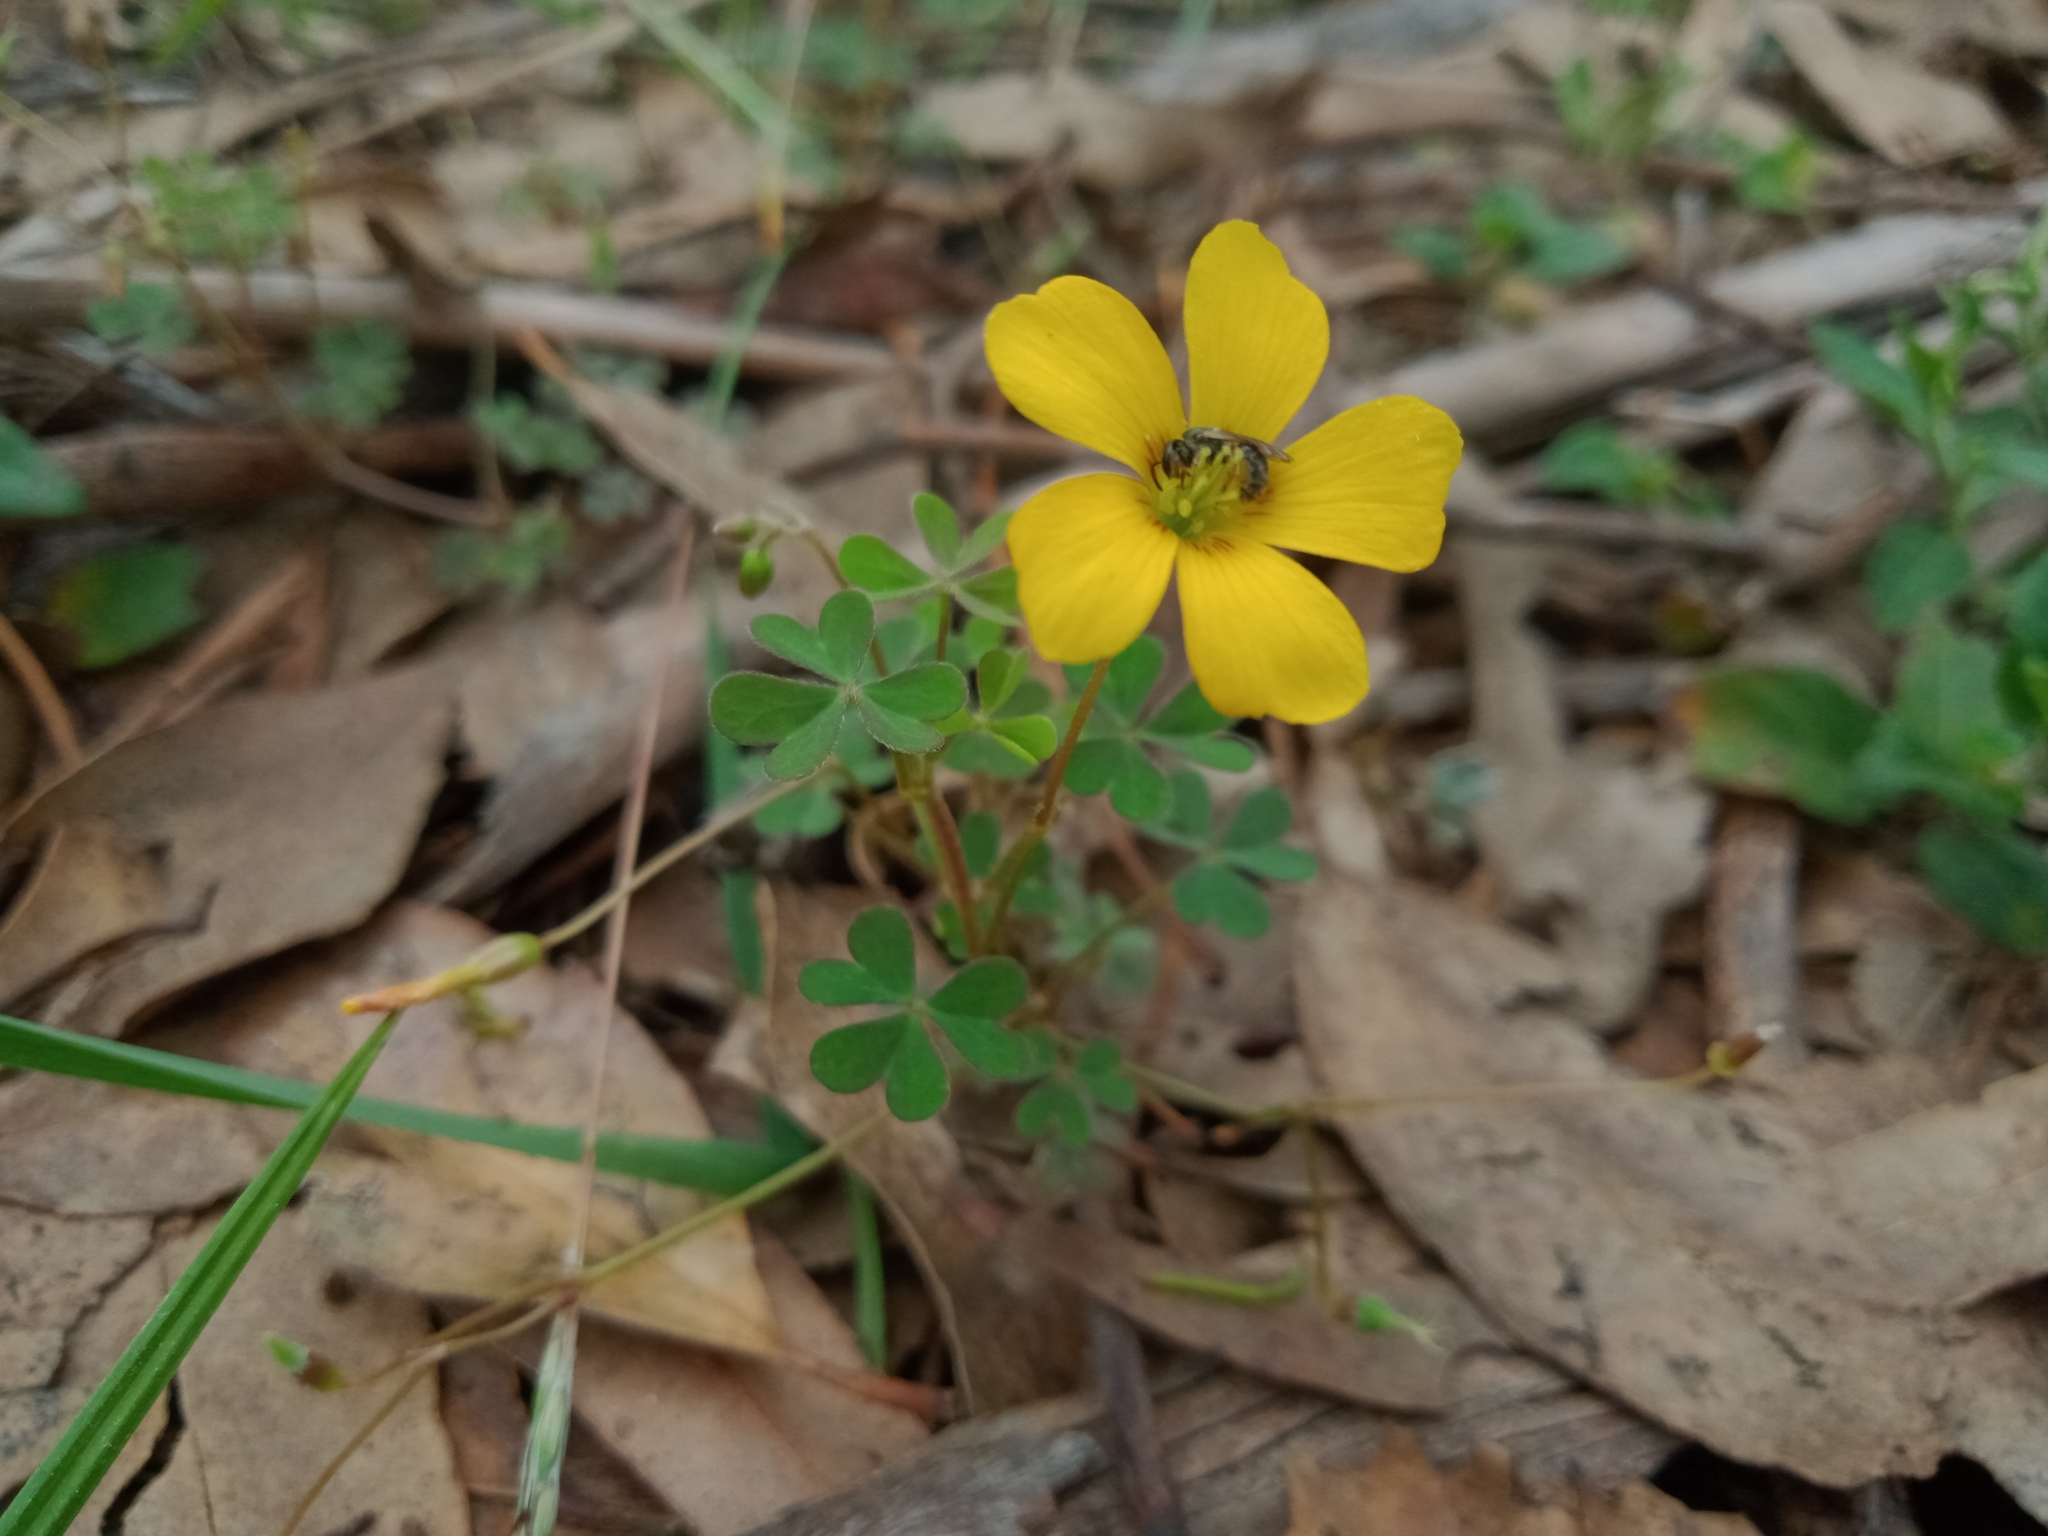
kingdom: Plantae
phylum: Tracheophyta
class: Magnoliopsida
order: Oxalidales
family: Oxalidaceae
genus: Oxalis
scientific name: Oxalis corniculata
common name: Procumbent yellow-sorrel
